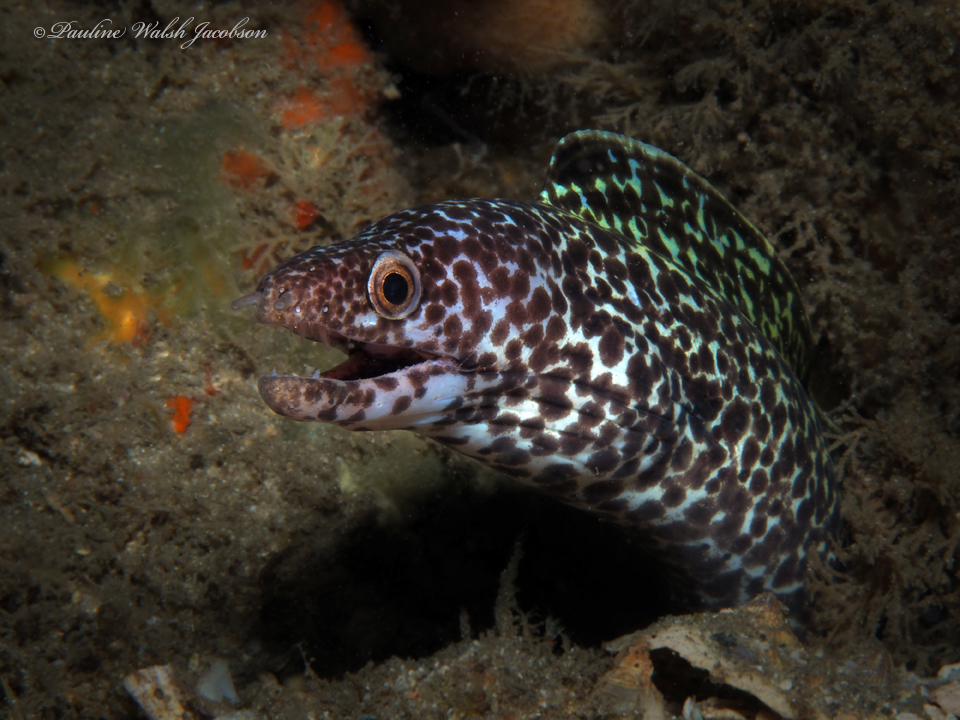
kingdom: Animalia
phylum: Chordata
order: Anguilliformes
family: Muraenidae
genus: Gymnothorax
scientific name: Gymnothorax moringa
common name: Spotted moray
